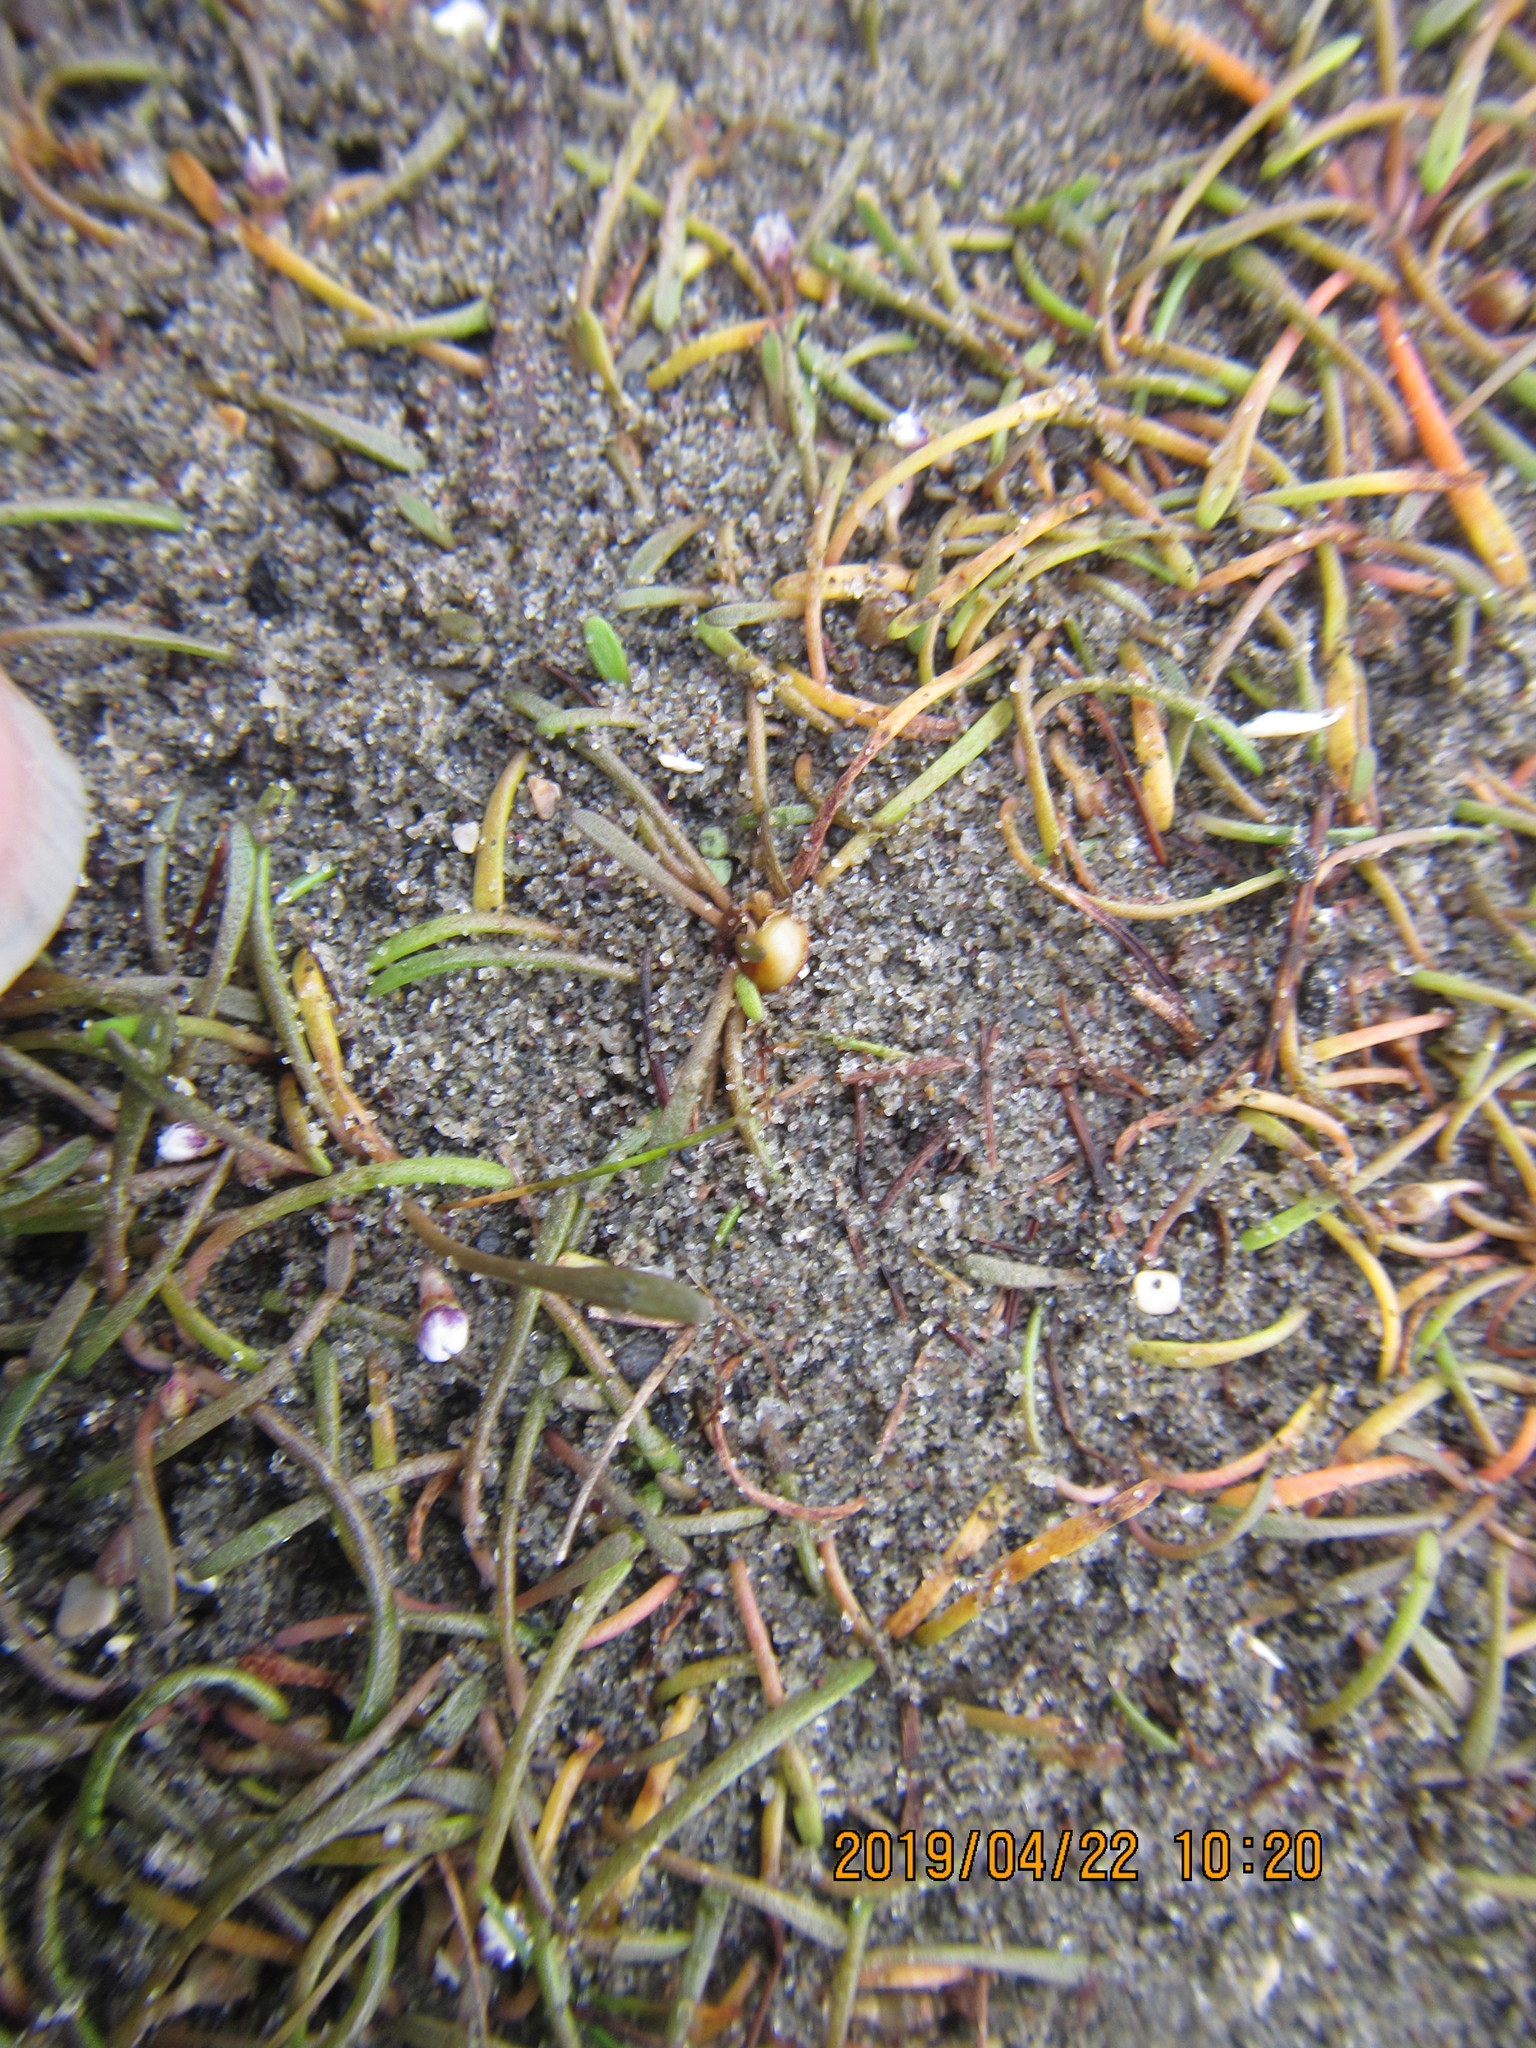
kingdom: Plantae
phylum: Tracheophyta
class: Magnoliopsida
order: Lamiales
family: Scrophulariaceae
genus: Limosella
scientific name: Limosella australis
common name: Welsh mudwort
